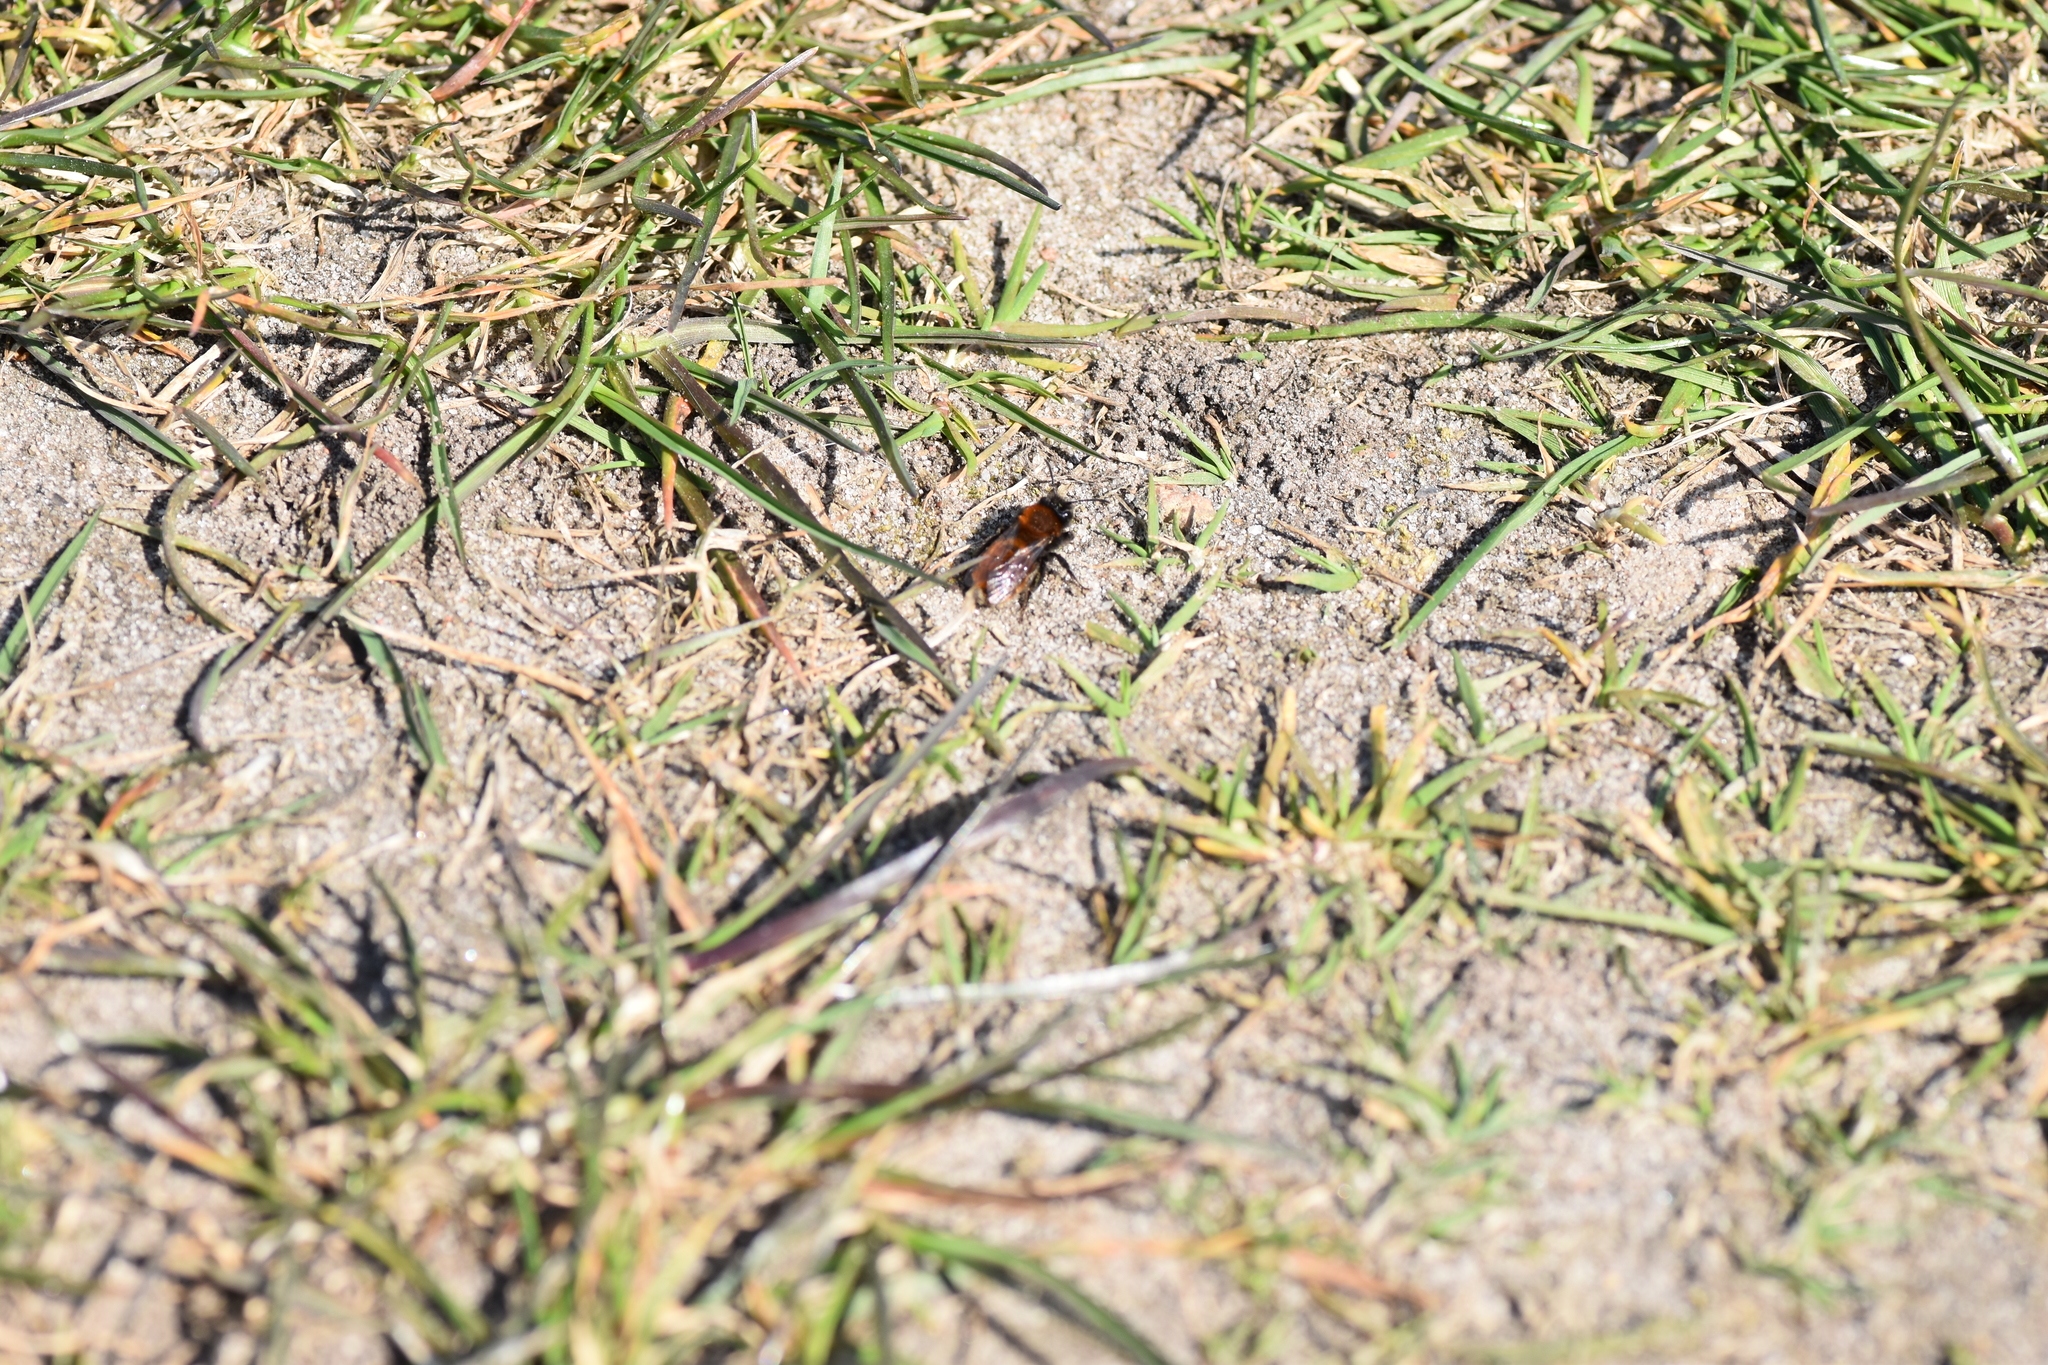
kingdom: Animalia
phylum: Arthropoda
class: Insecta
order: Hymenoptera
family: Andrenidae
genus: Andrena
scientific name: Andrena fulva
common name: Tawny mining bee
